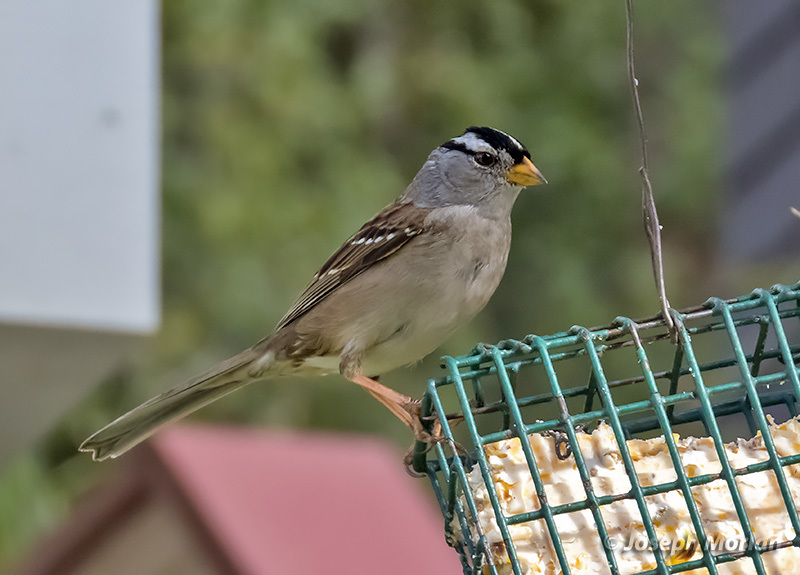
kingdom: Animalia
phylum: Chordata
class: Aves
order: Passeriformes
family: Passerellidae
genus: Zonotrichia
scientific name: Zonotrichia leucophrys
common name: White-crowned sparrow
